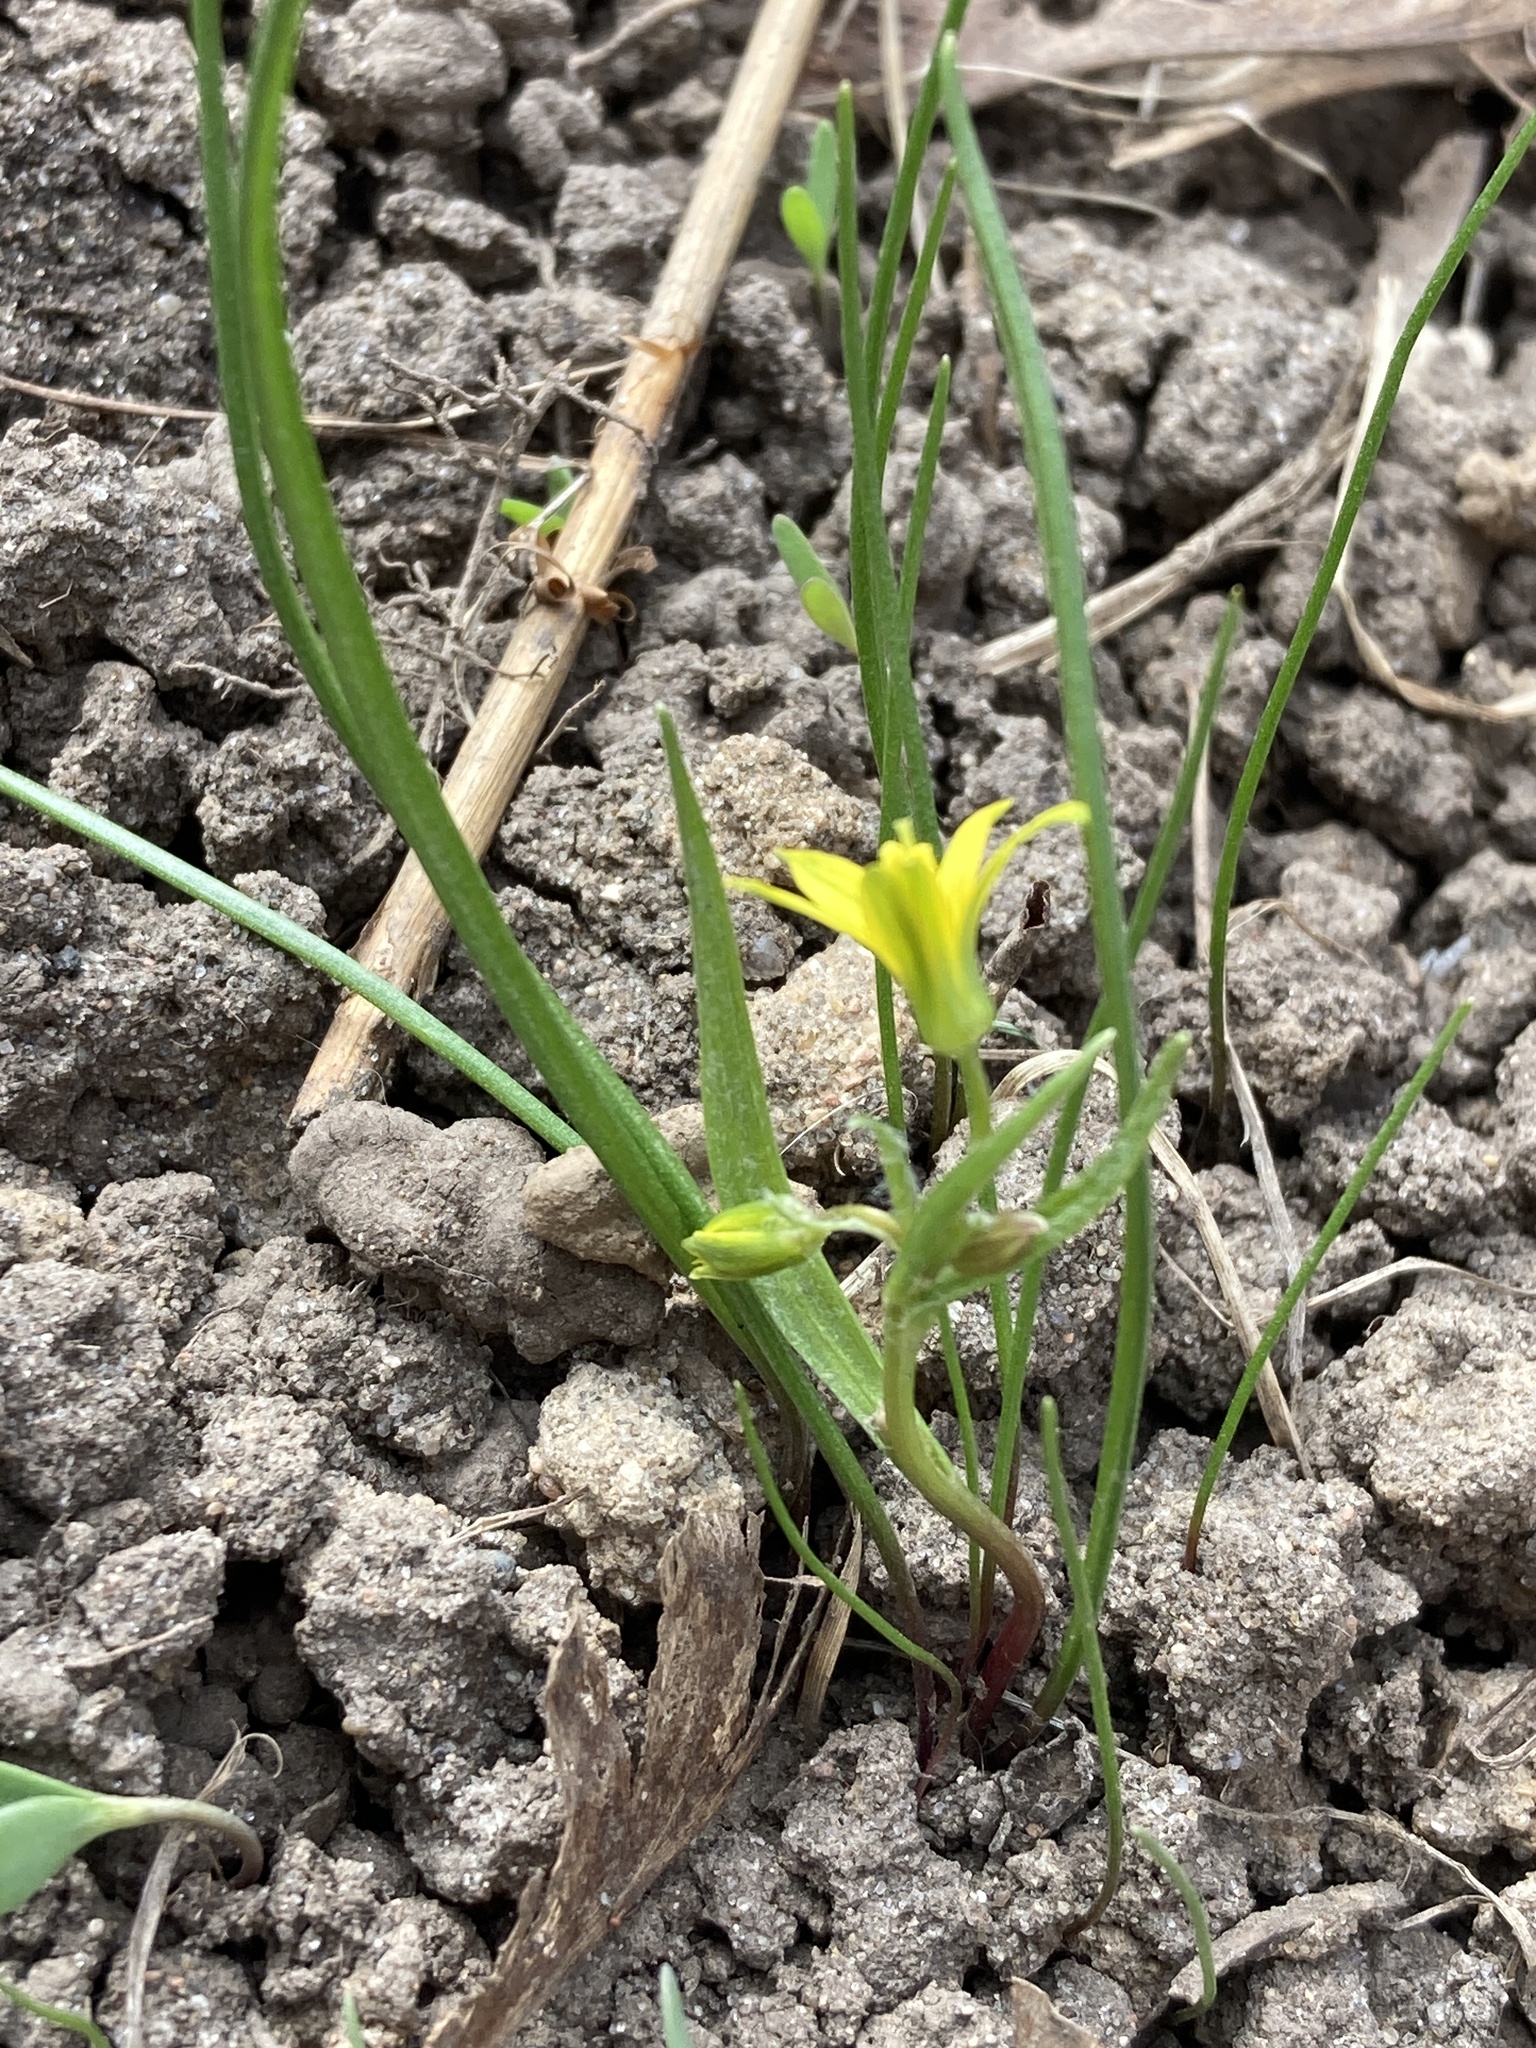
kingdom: Plantae
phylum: Tracheophyta
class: Liliopsida
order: Liliales
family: Liliaceae
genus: Gagea
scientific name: Gagea minima
